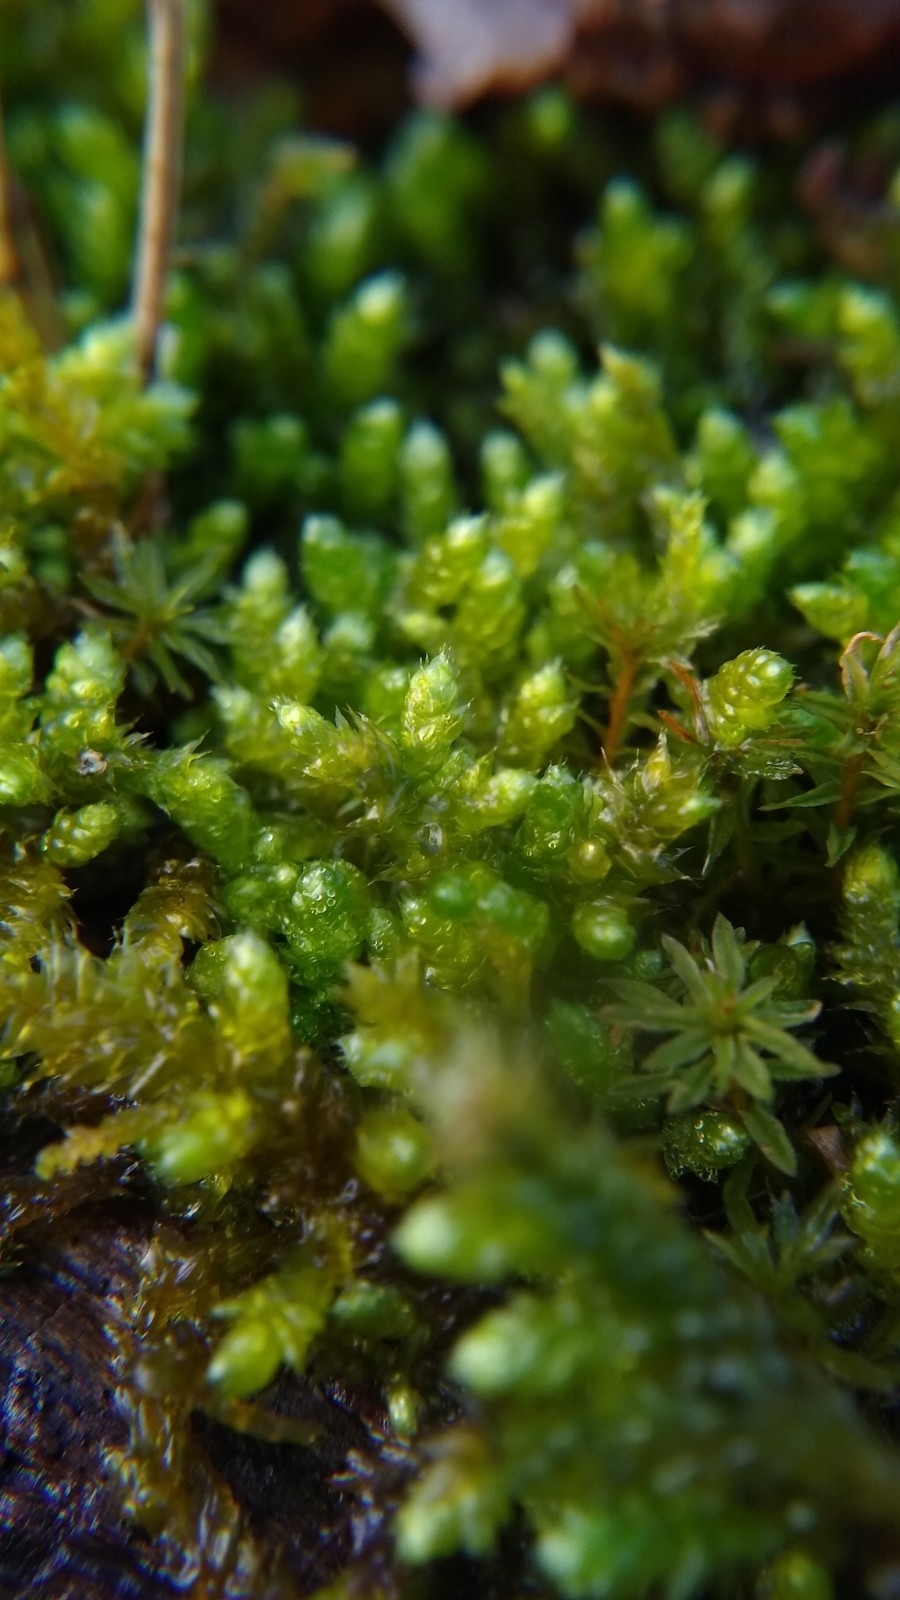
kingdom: Plantae
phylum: Bryophyta
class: Bryopsida
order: Hypnales
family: Brachytheciaceae
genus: Bryoandersonia
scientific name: Bryoandersonia illecebra
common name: Spoon-leaved moss
